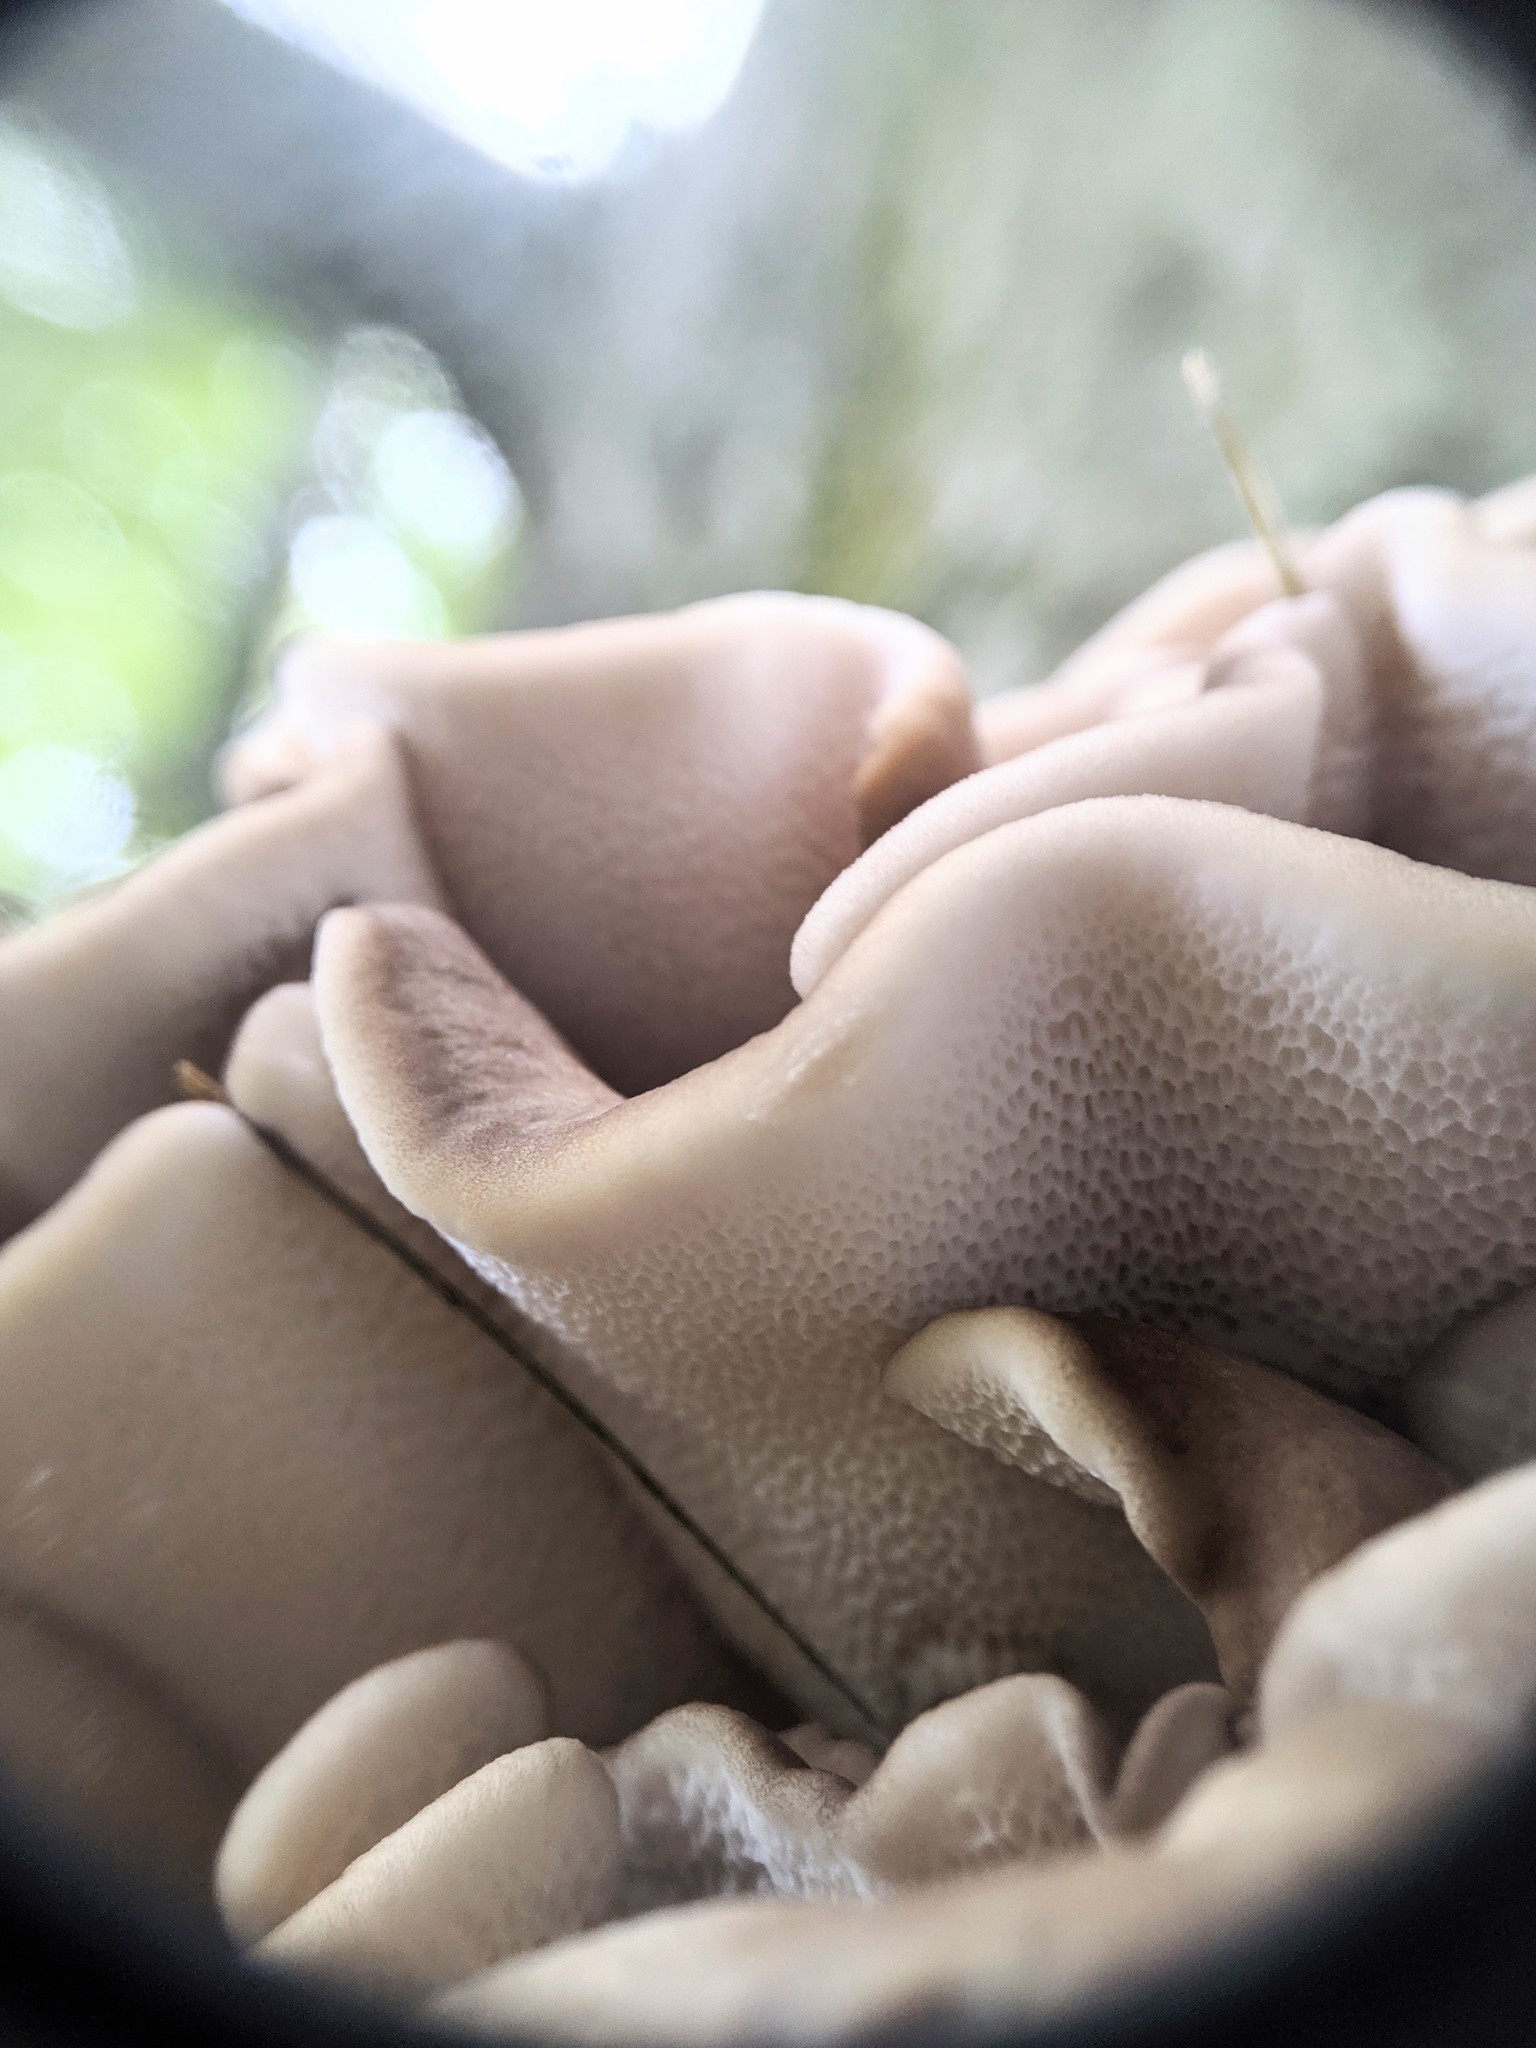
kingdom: Fungi
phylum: Basidiomycota
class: Agaricomycetes
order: Polyporales
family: Grifolaceae
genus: Grifola
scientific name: Grifola frondosa
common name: Hen of the woods
